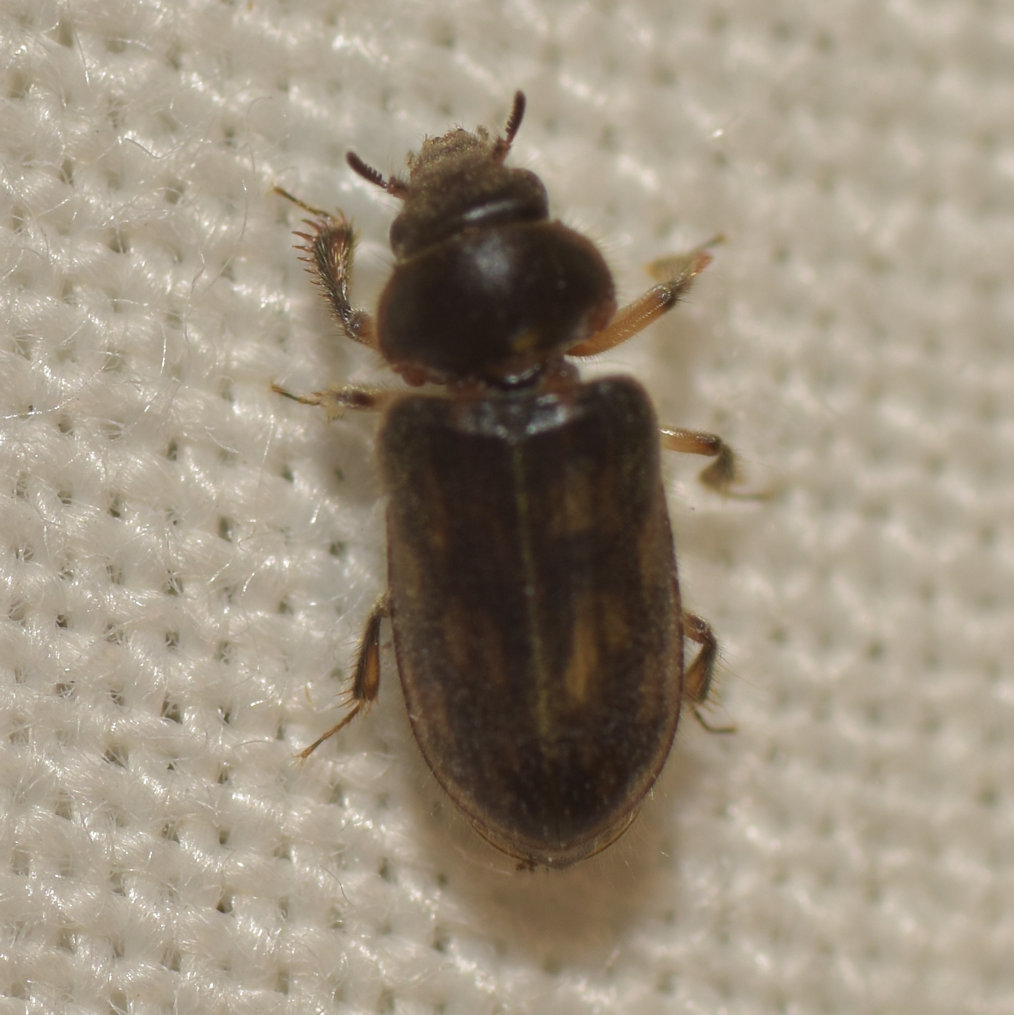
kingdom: Animalia
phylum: Arthropoda
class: Insecta
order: Coleoptera
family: Heteroceridae
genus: Heterocerus
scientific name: Heterocerus fenestratus
